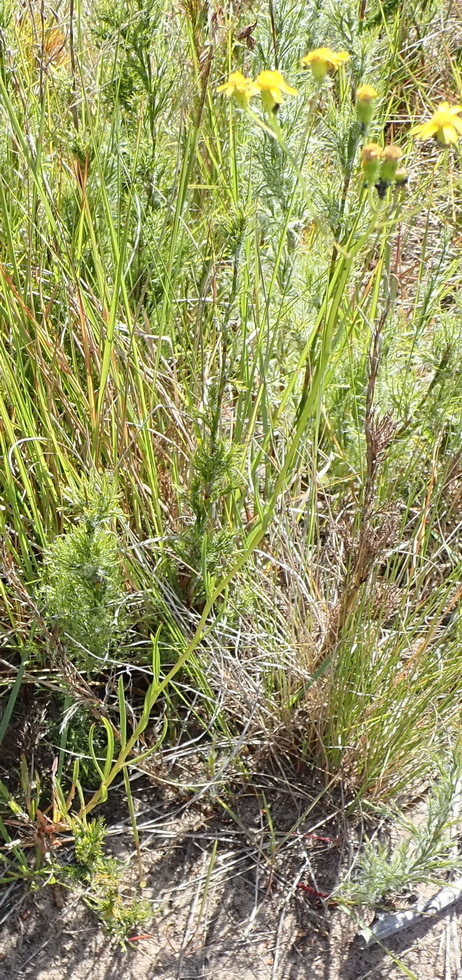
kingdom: Plantae
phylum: Tracheophyta
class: Magnoliopsida
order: Asterales
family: Asteraceae
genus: Senecio
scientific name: Senecio ilicifolius
